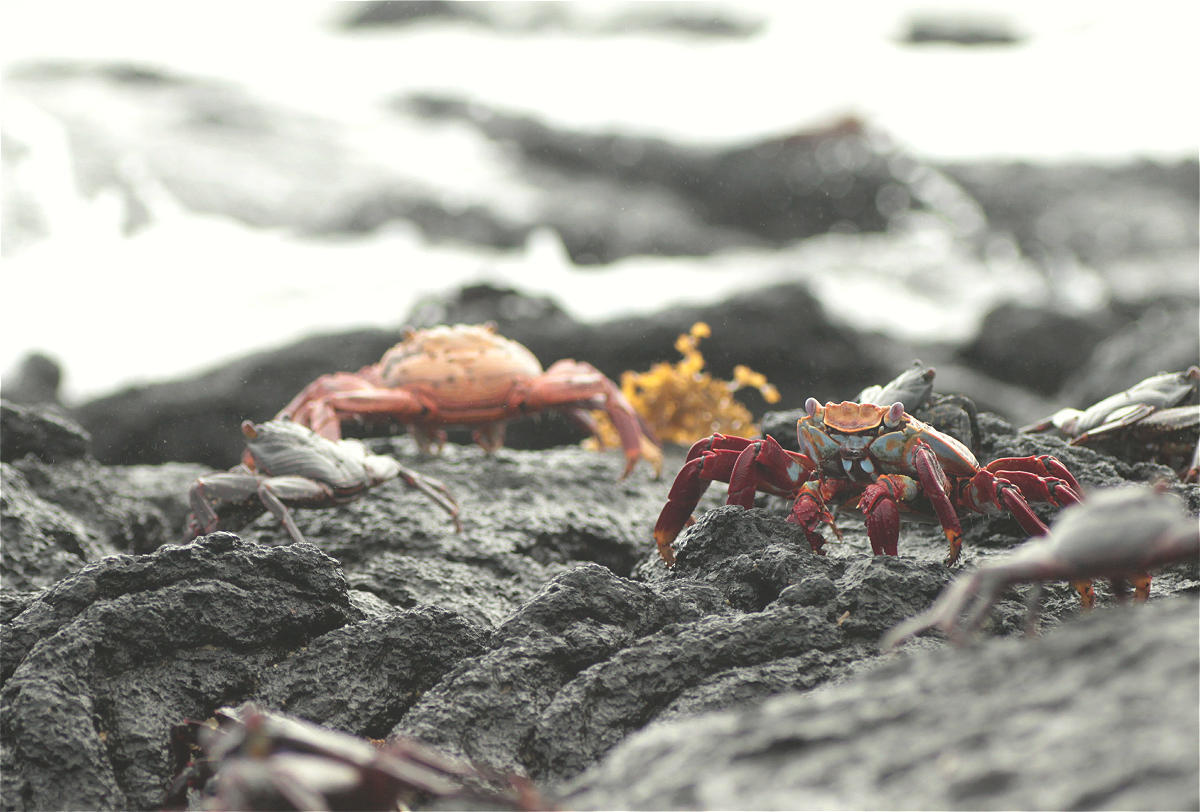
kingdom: Animalia
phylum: Arthropoda
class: Malacostraca
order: Decapoda
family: Grapsidae
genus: Grapsus
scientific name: Grapsus grapsus
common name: Sally lightfoot
